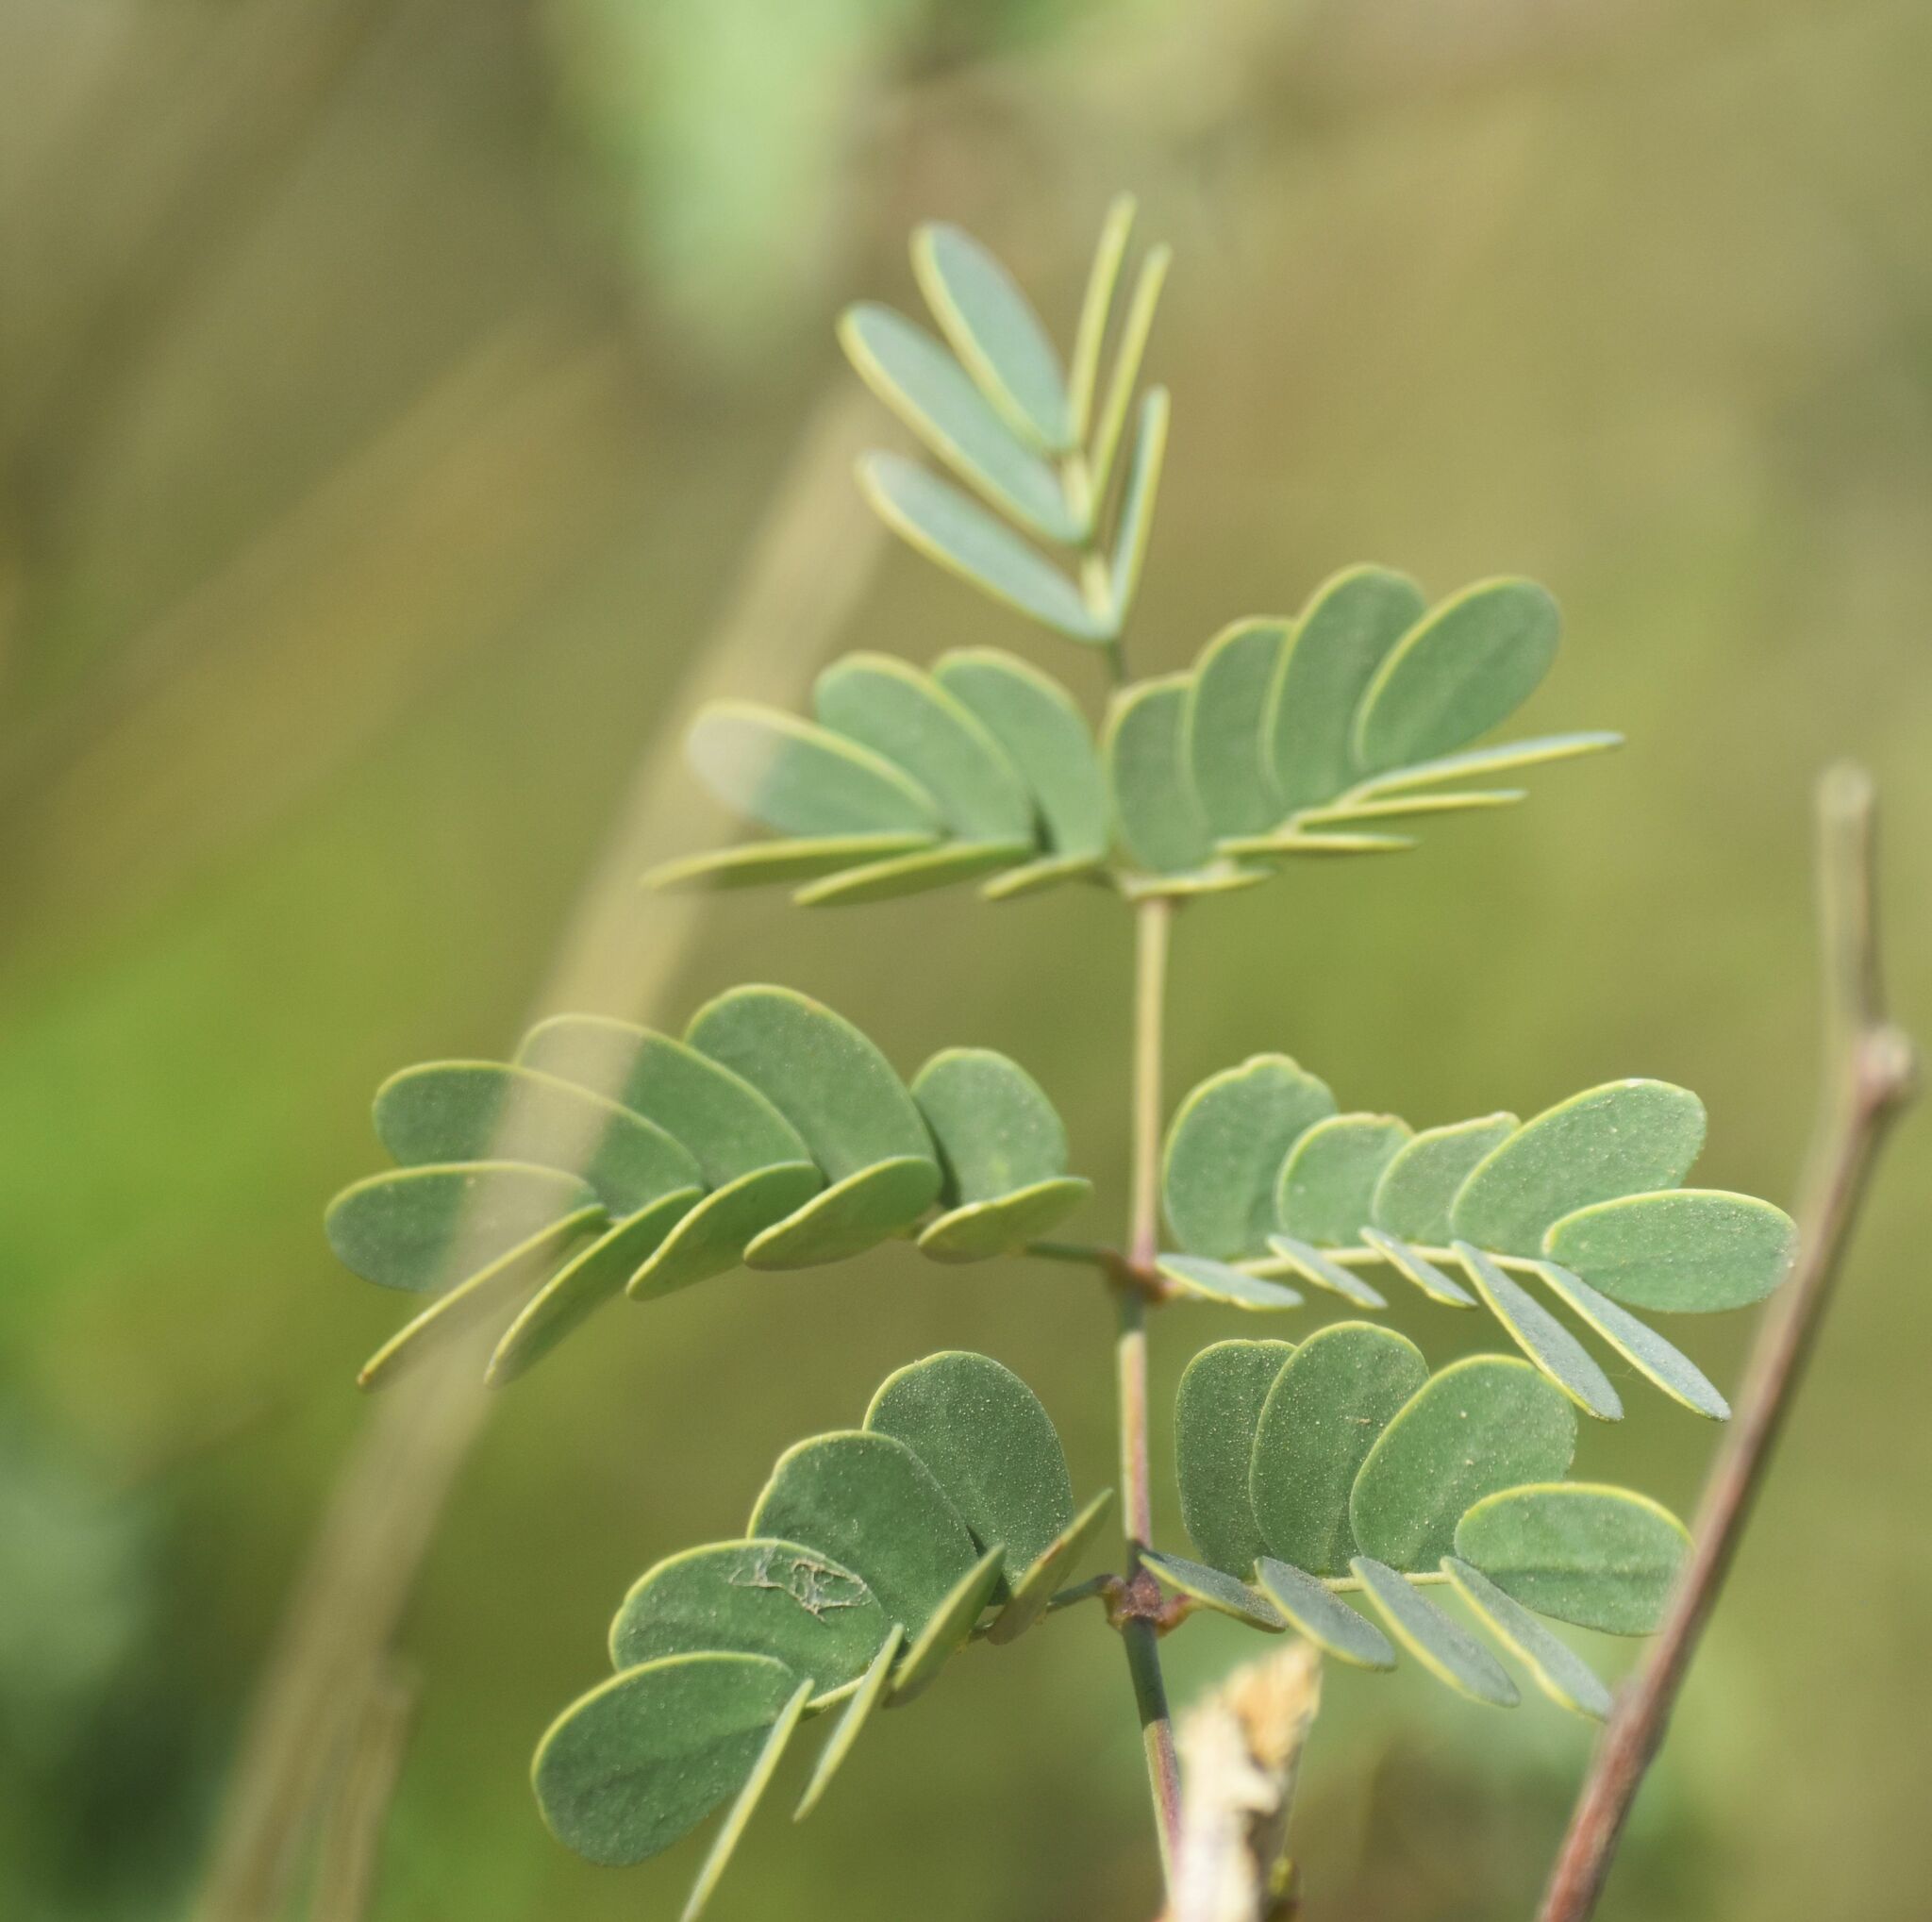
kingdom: Plantae
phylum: Tracheophyta
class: Magnoliopsida
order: Fabales
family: Fabaceae
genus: Erythrostemon
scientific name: Erythrostemon pannosus
